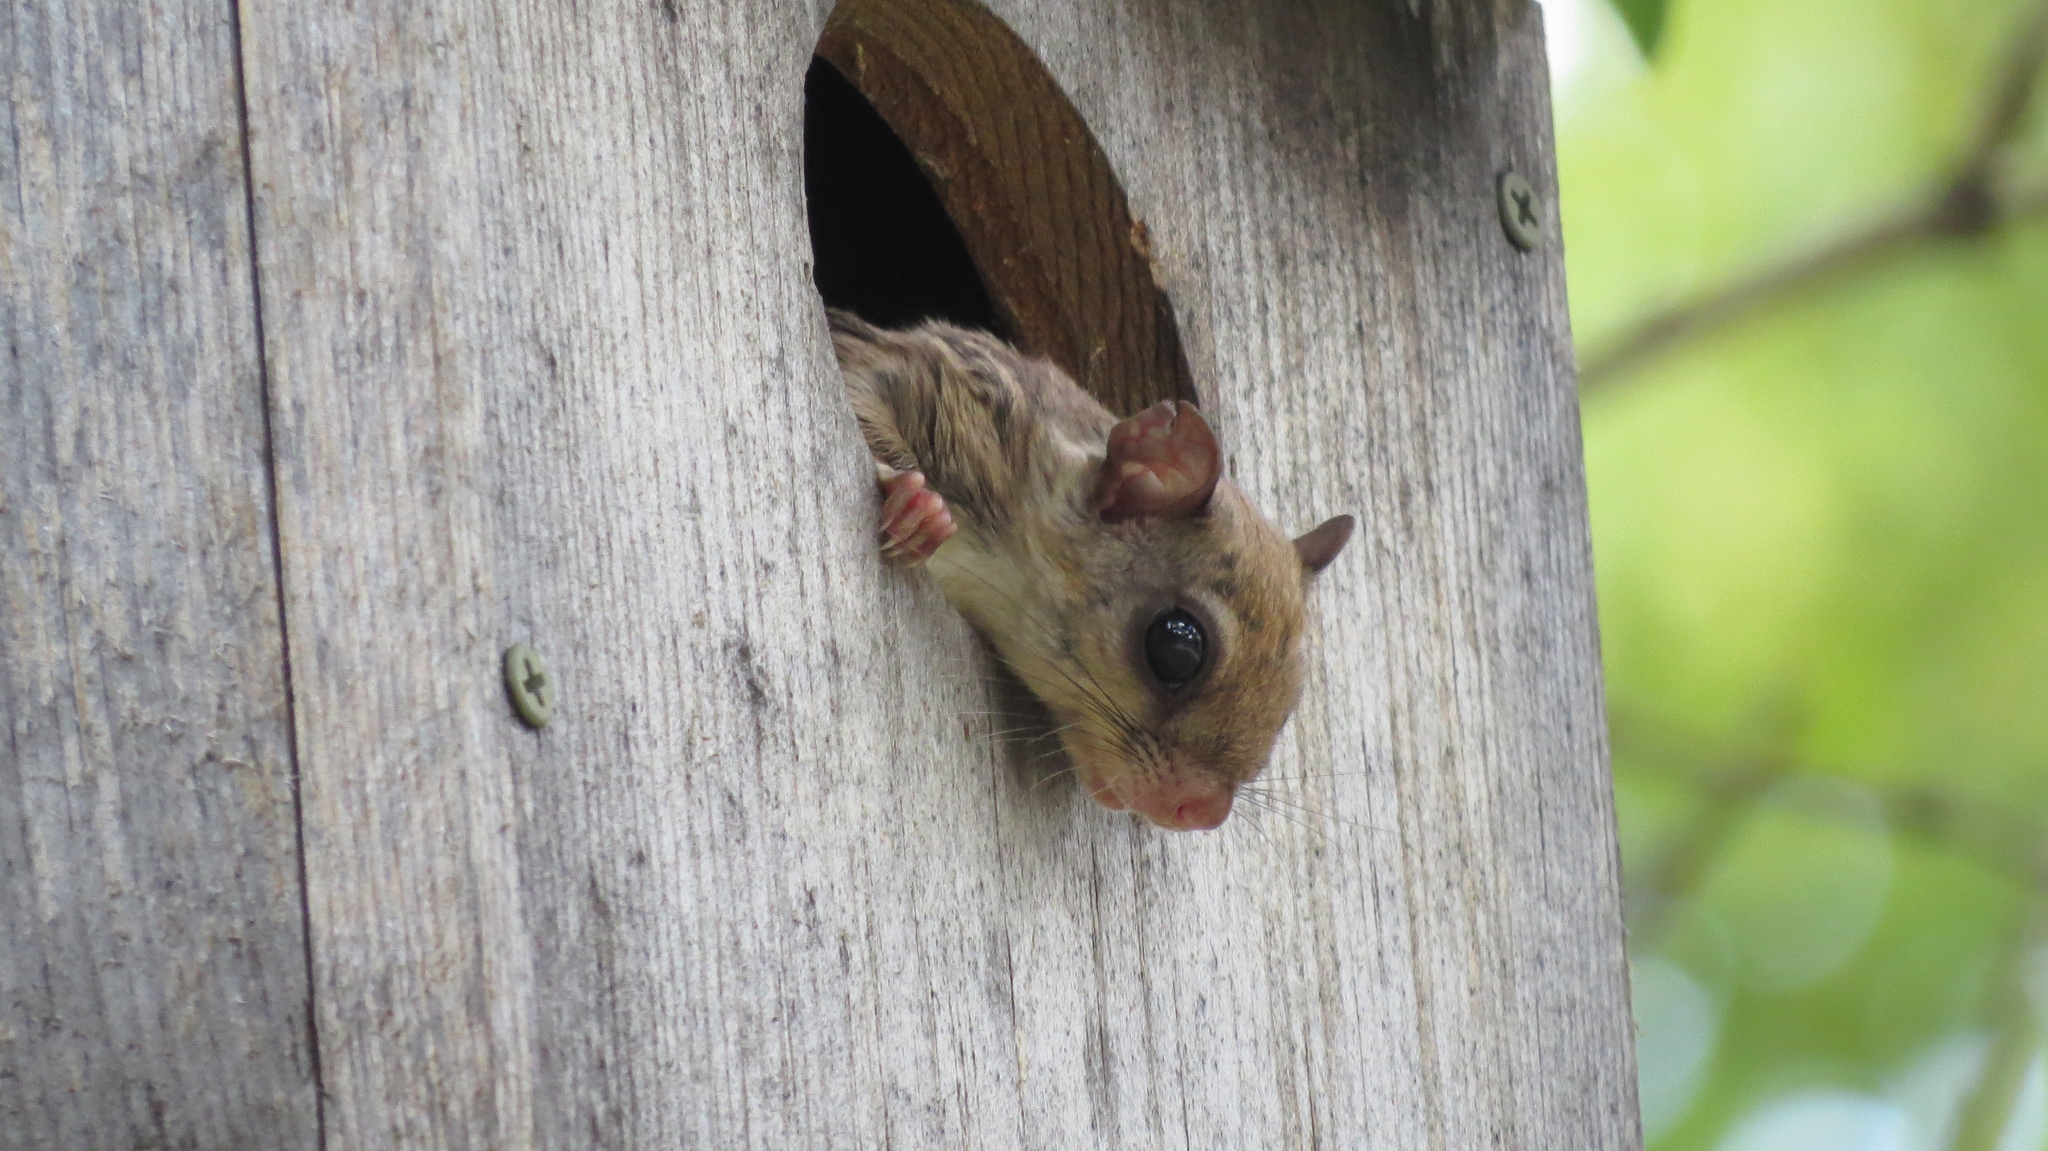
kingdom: Animalia
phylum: Chordata
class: Mammalia
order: Rodentia
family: Sciuridae
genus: Glaucomys
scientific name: Glaucomys volans
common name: Southern flying squirrel
